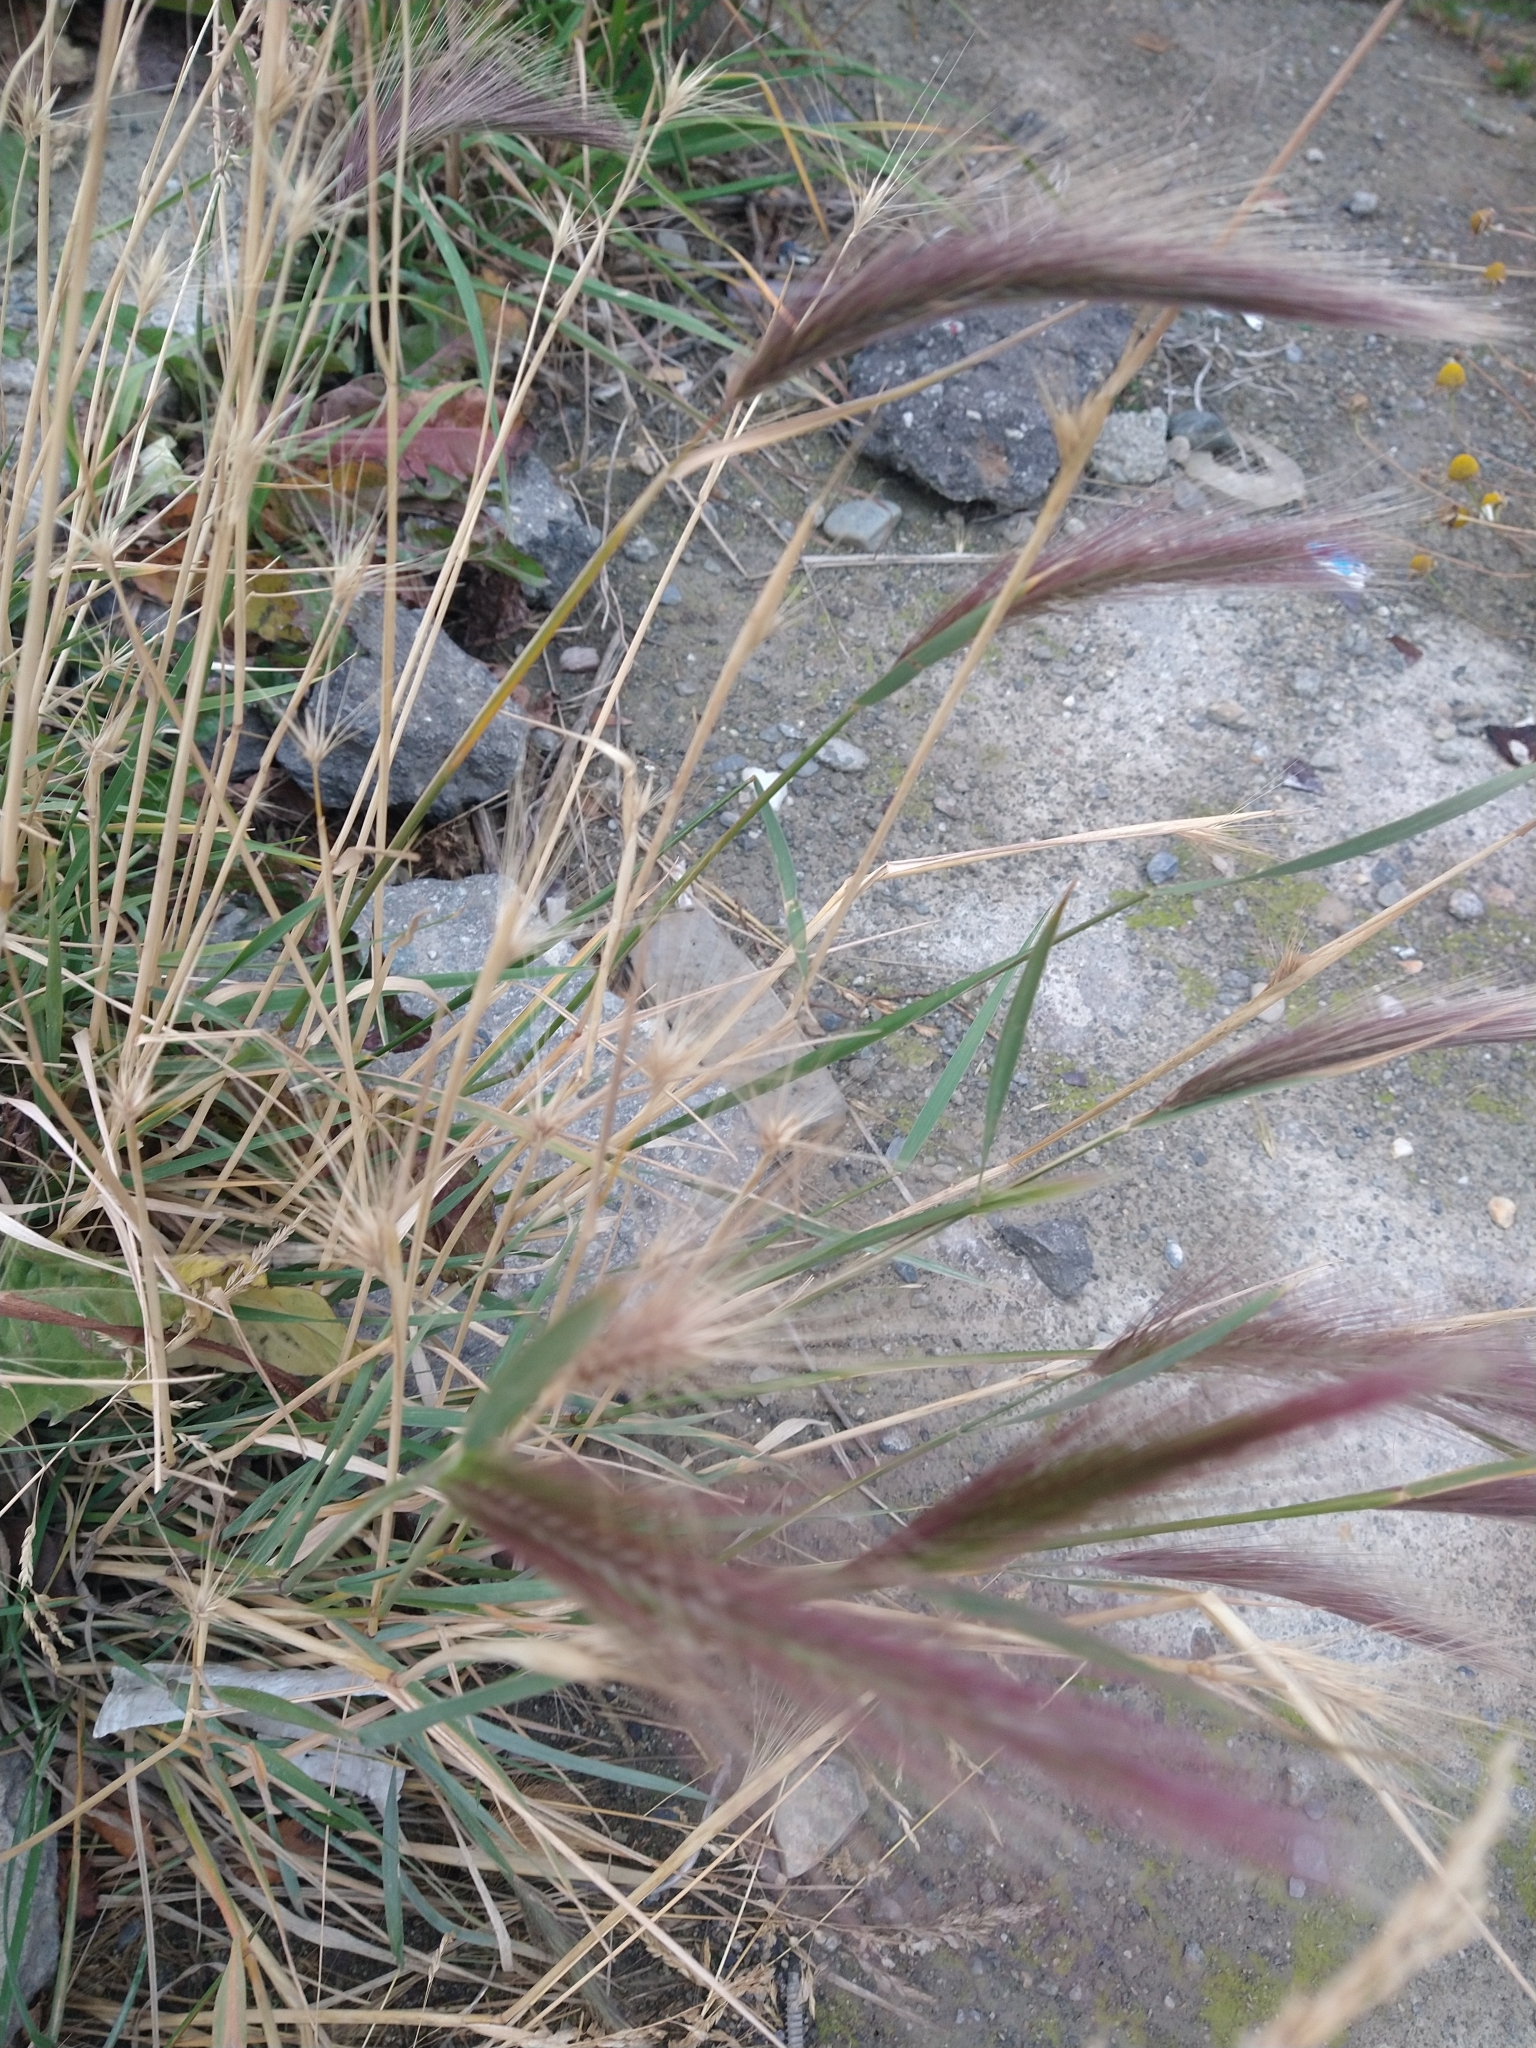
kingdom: Plantae
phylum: Tracheophyta
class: Liliopsida
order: Poales
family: Poaceae
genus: Hordeum
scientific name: Hordeum jubatum
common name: Foxtail barley
